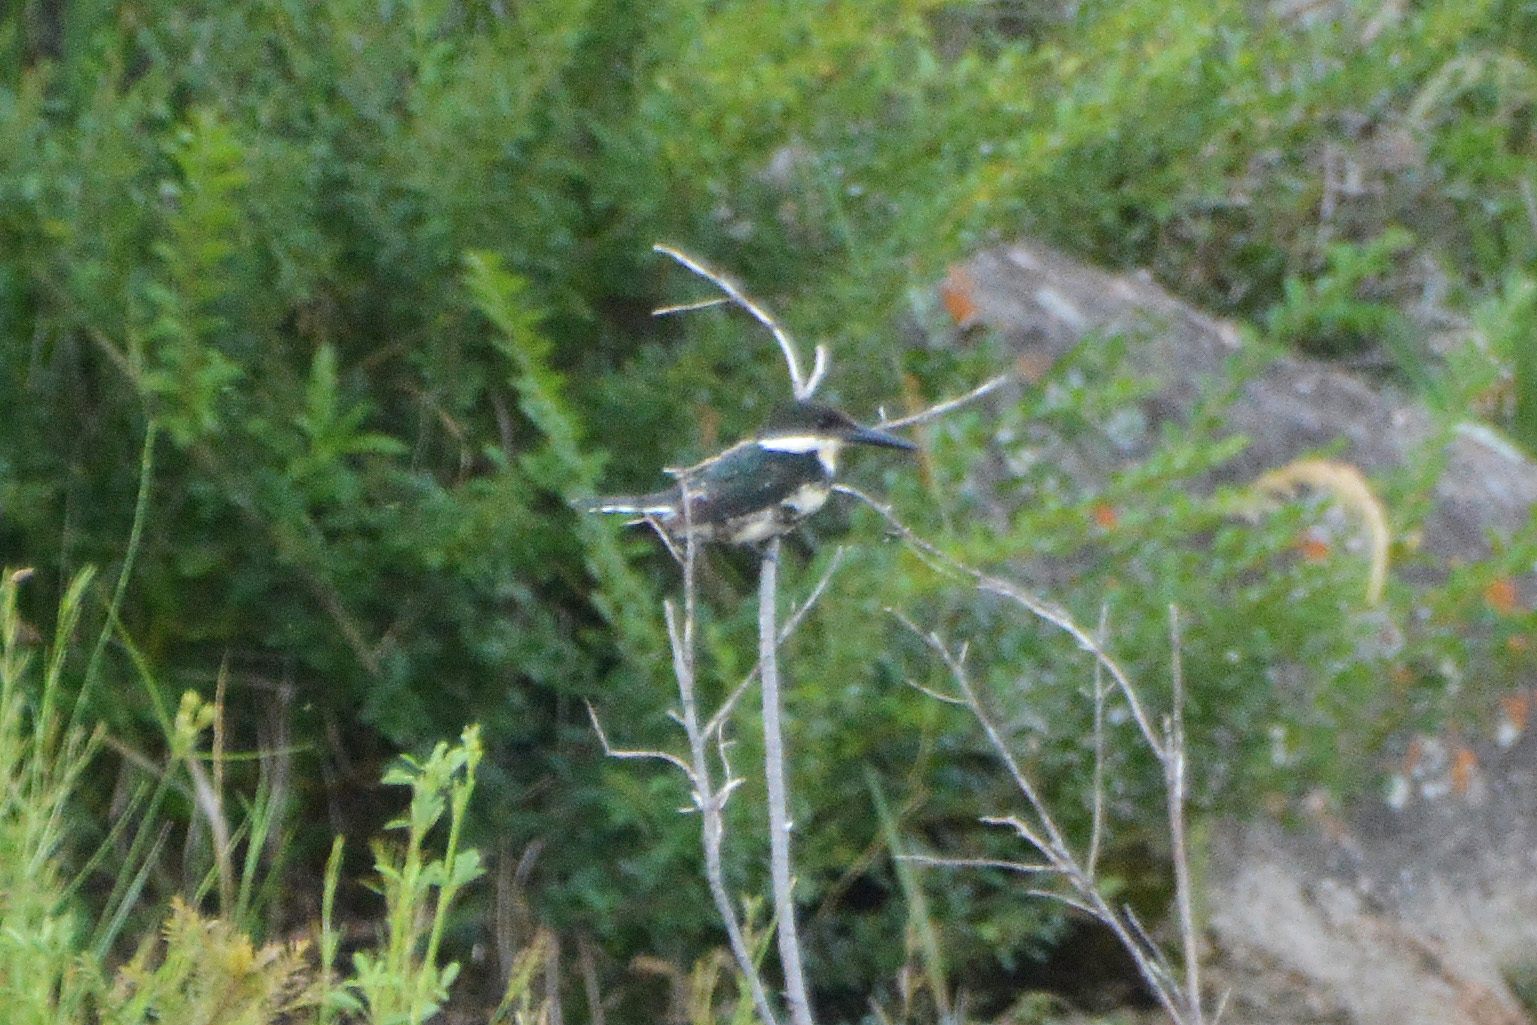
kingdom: Animalia
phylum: Chordata
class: Aves
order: Coraciiformes
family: Alcedinidae
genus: Chloroceryle
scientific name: Chloroceryle americana
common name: Green kingfisher
